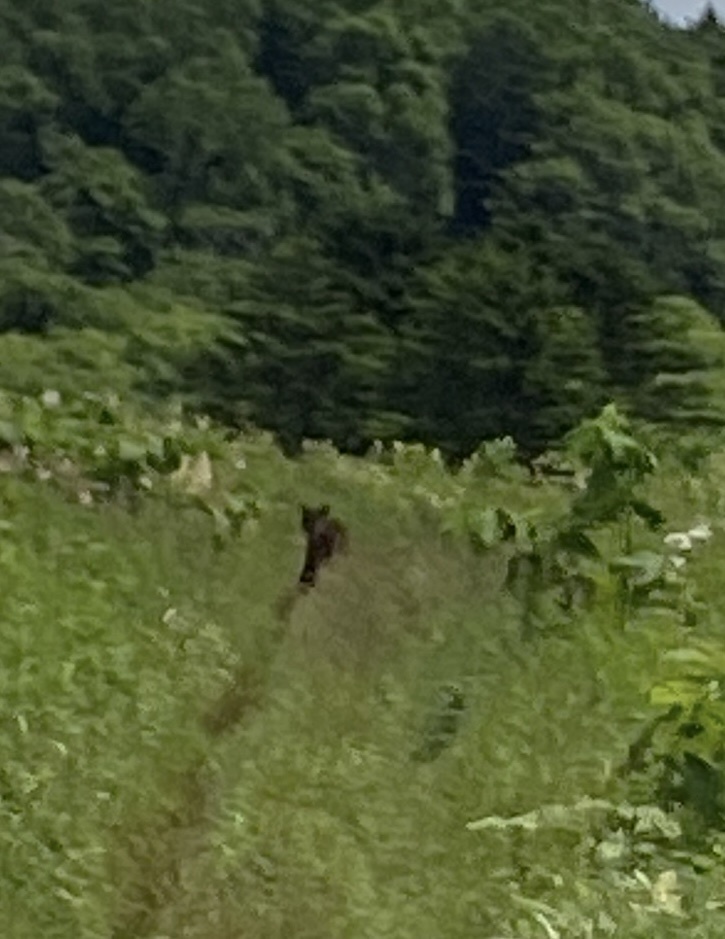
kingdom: Animalia
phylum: Chordata
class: Mammalia
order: Carnivora
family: Ursidae
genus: Ursus
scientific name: Ursus arctos
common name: Brown bear
